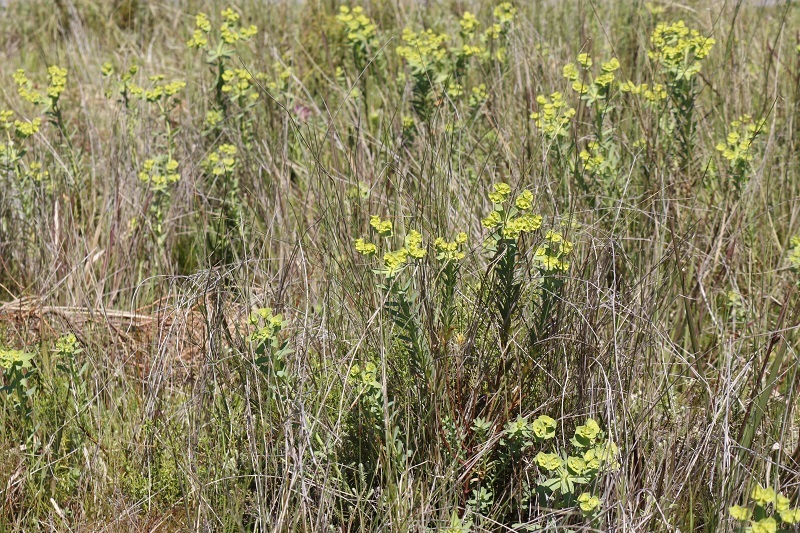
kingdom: Plantae
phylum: Tracheophyta
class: Magnoliopsida
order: Malpighiales
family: Euphorbiaceae
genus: Euphorbia
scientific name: Euphorbia terracina
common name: Geraldton carnation weed
